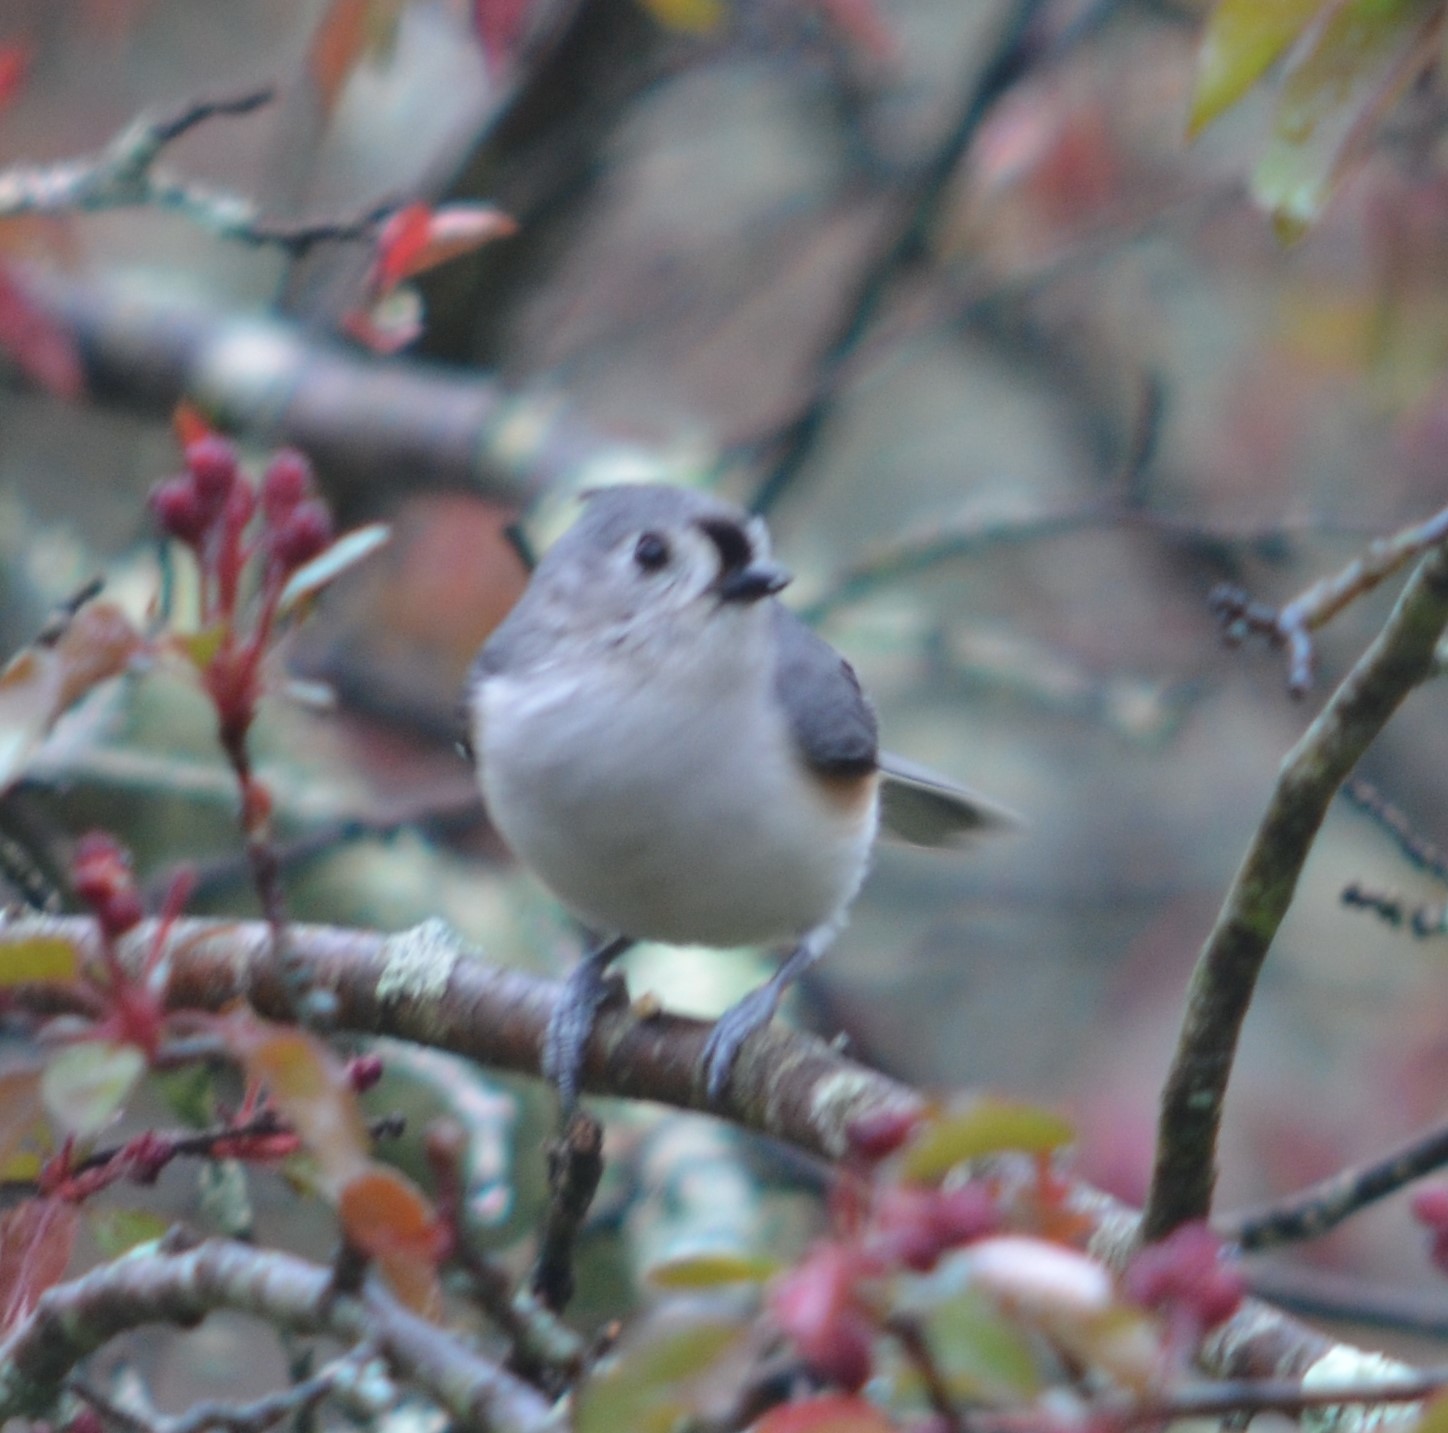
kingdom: Animalia
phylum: Chordata
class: Aves
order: Passeriformes
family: Paridae
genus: Baeolophus
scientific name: Baeolophus bicolor
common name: Tufted titmouse
